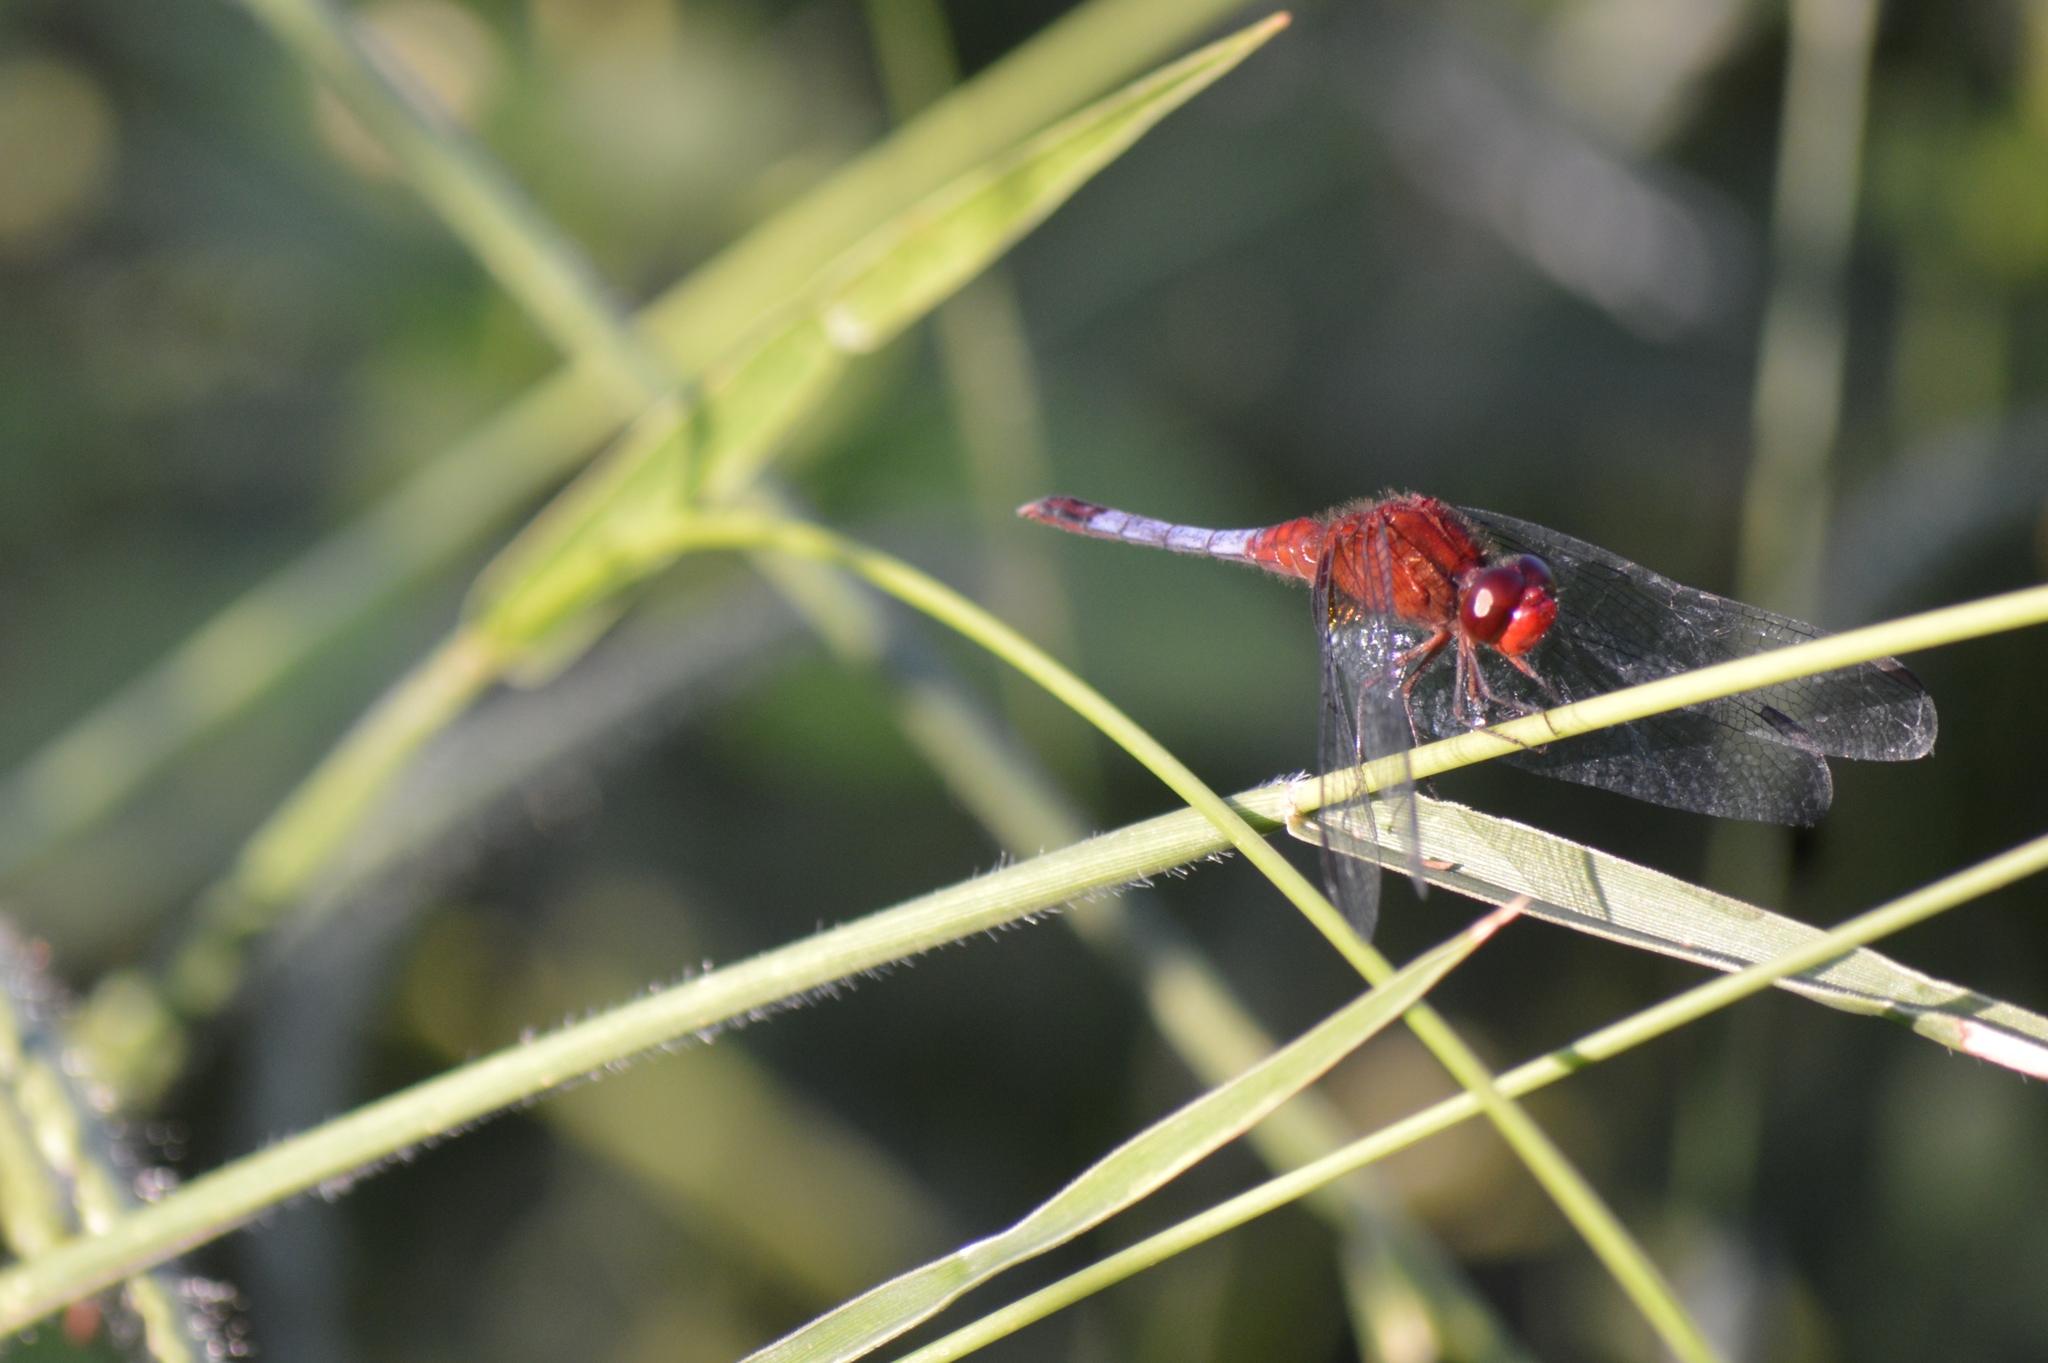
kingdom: Animalia
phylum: Arthropoda
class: Insecta
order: Odonata
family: Libellulidae
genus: Erythrodiplax
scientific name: Erythrodiplax fusca
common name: Red-faced dragonlet
